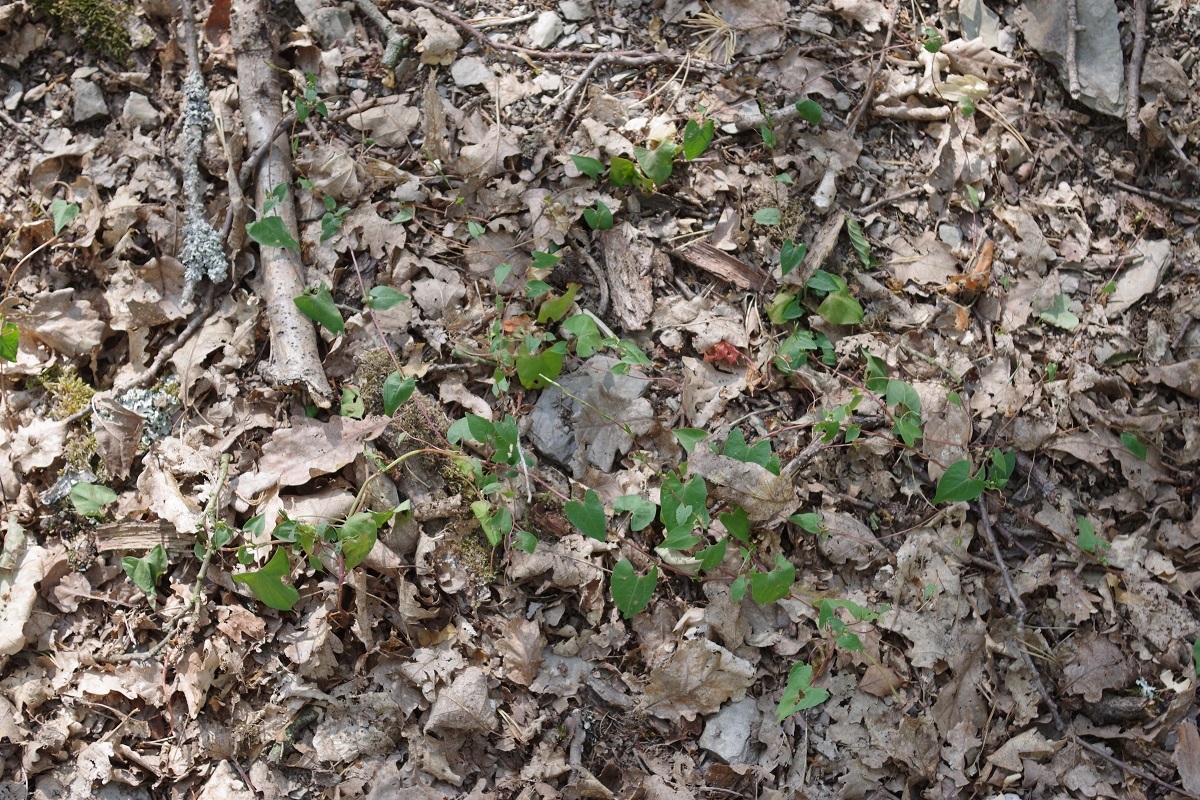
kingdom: Plantae
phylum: Tracheophyta
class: Magnoliopsida
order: Caryophyllales
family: Polygonaceae
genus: Fallopia
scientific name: Fallopia convolvulus
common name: Black bindweed
